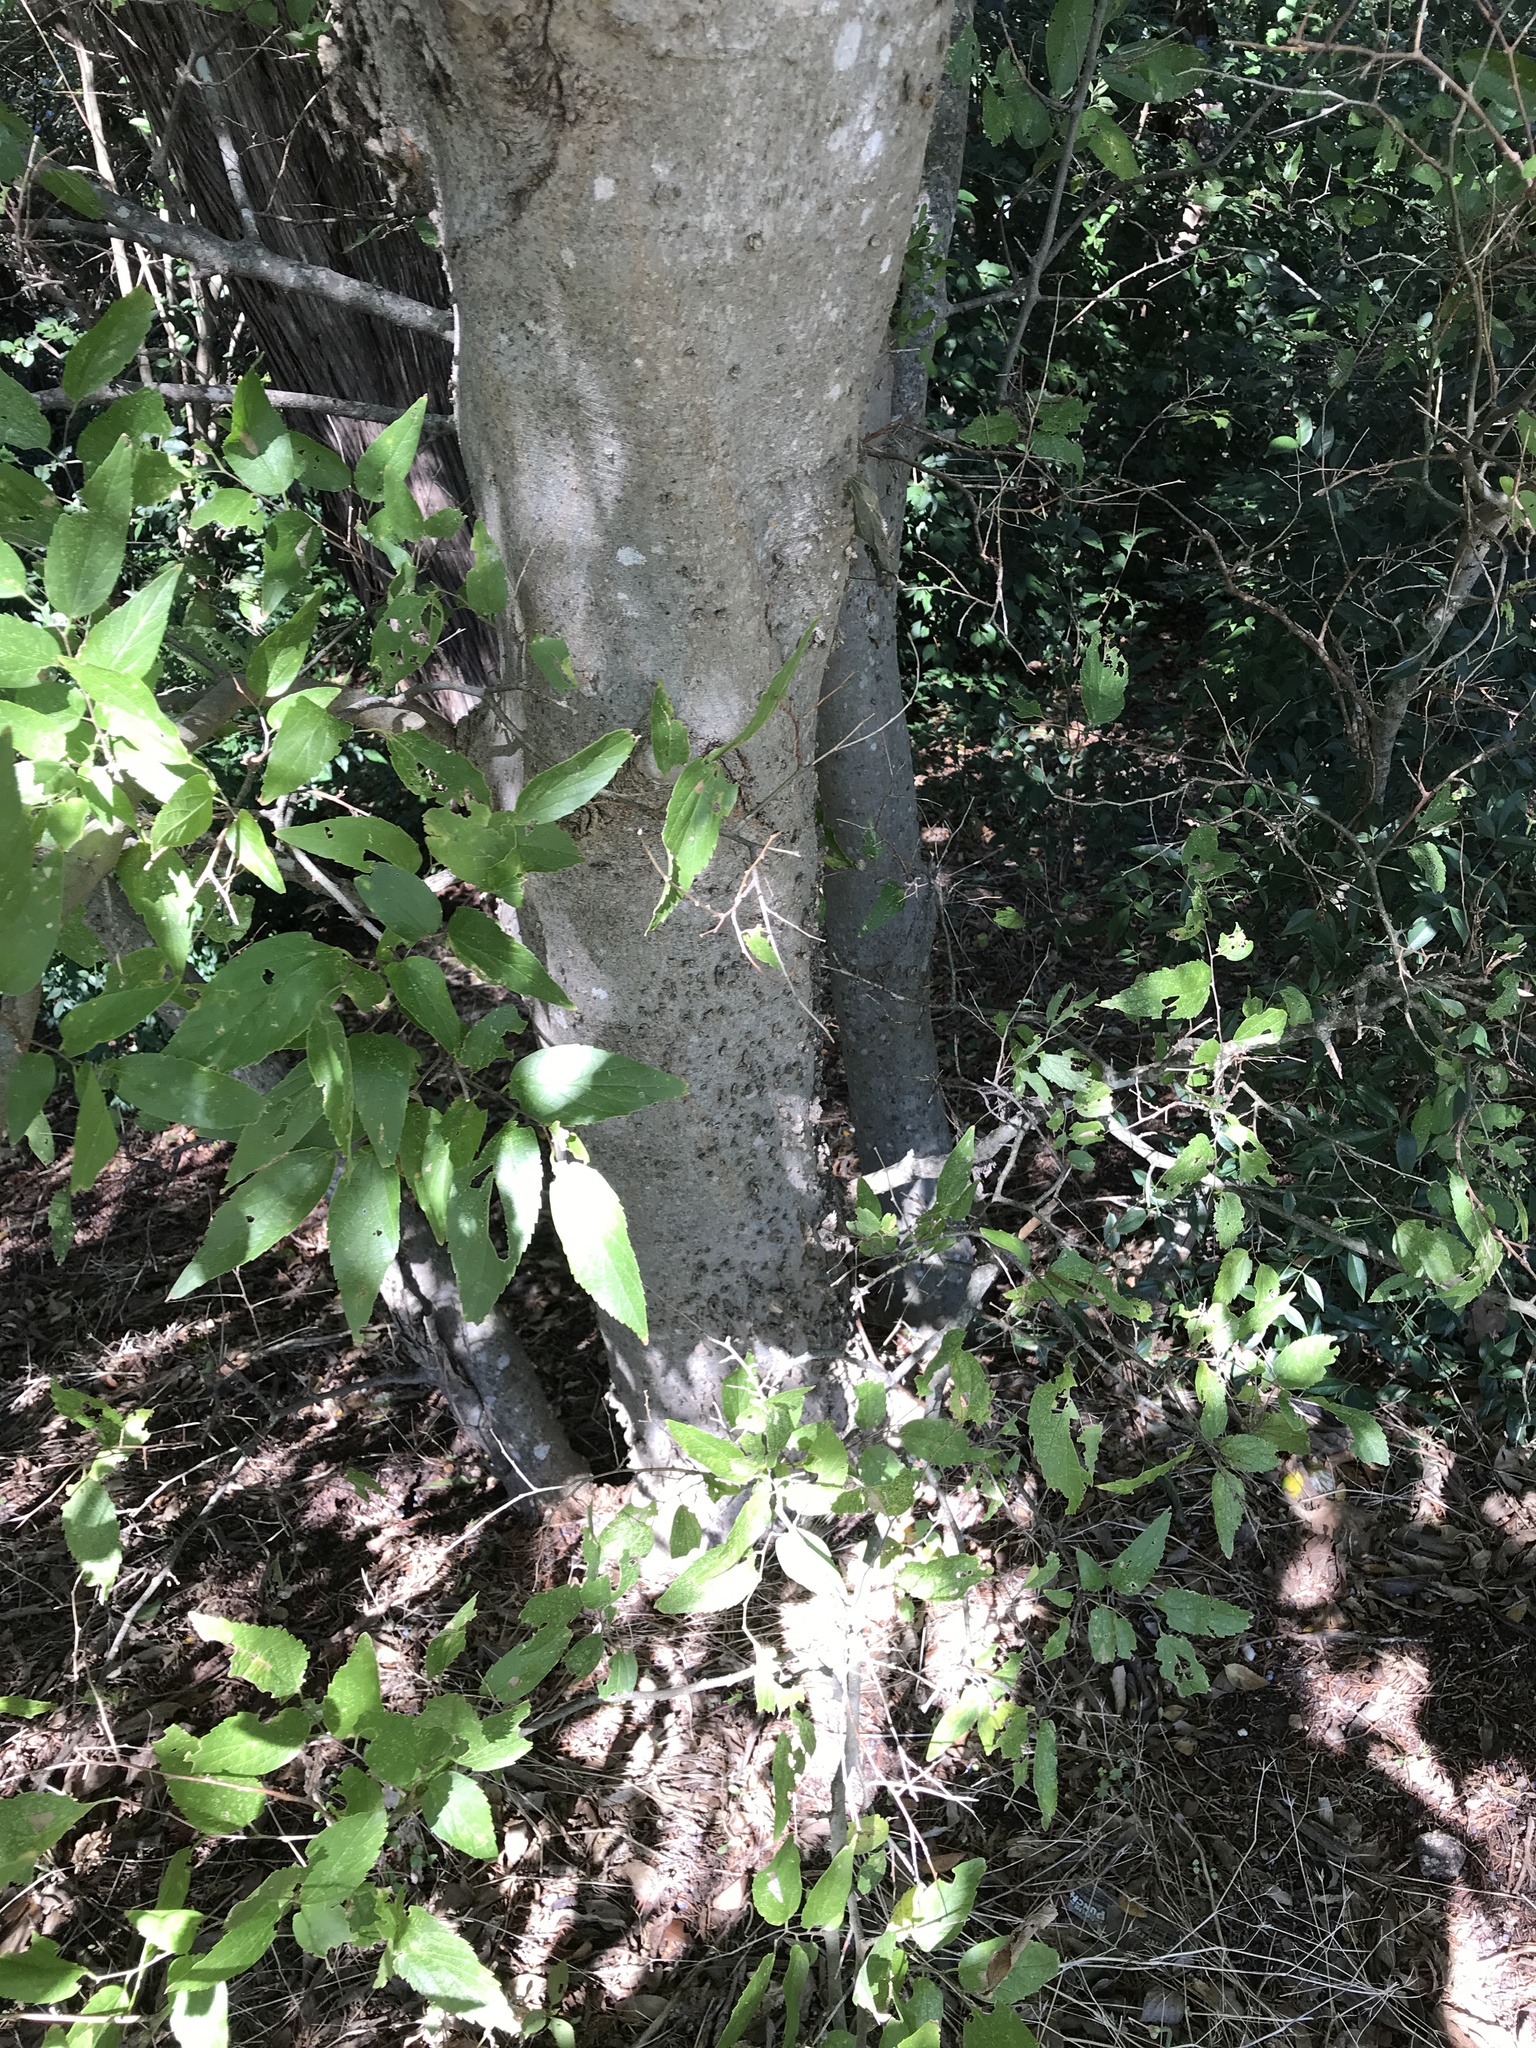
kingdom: Plantae
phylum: Tracheophyta
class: Magnoliopsida
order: Rosales
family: Cannabaceae
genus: Celtis
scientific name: Celtis laevigata
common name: Sugarberry
